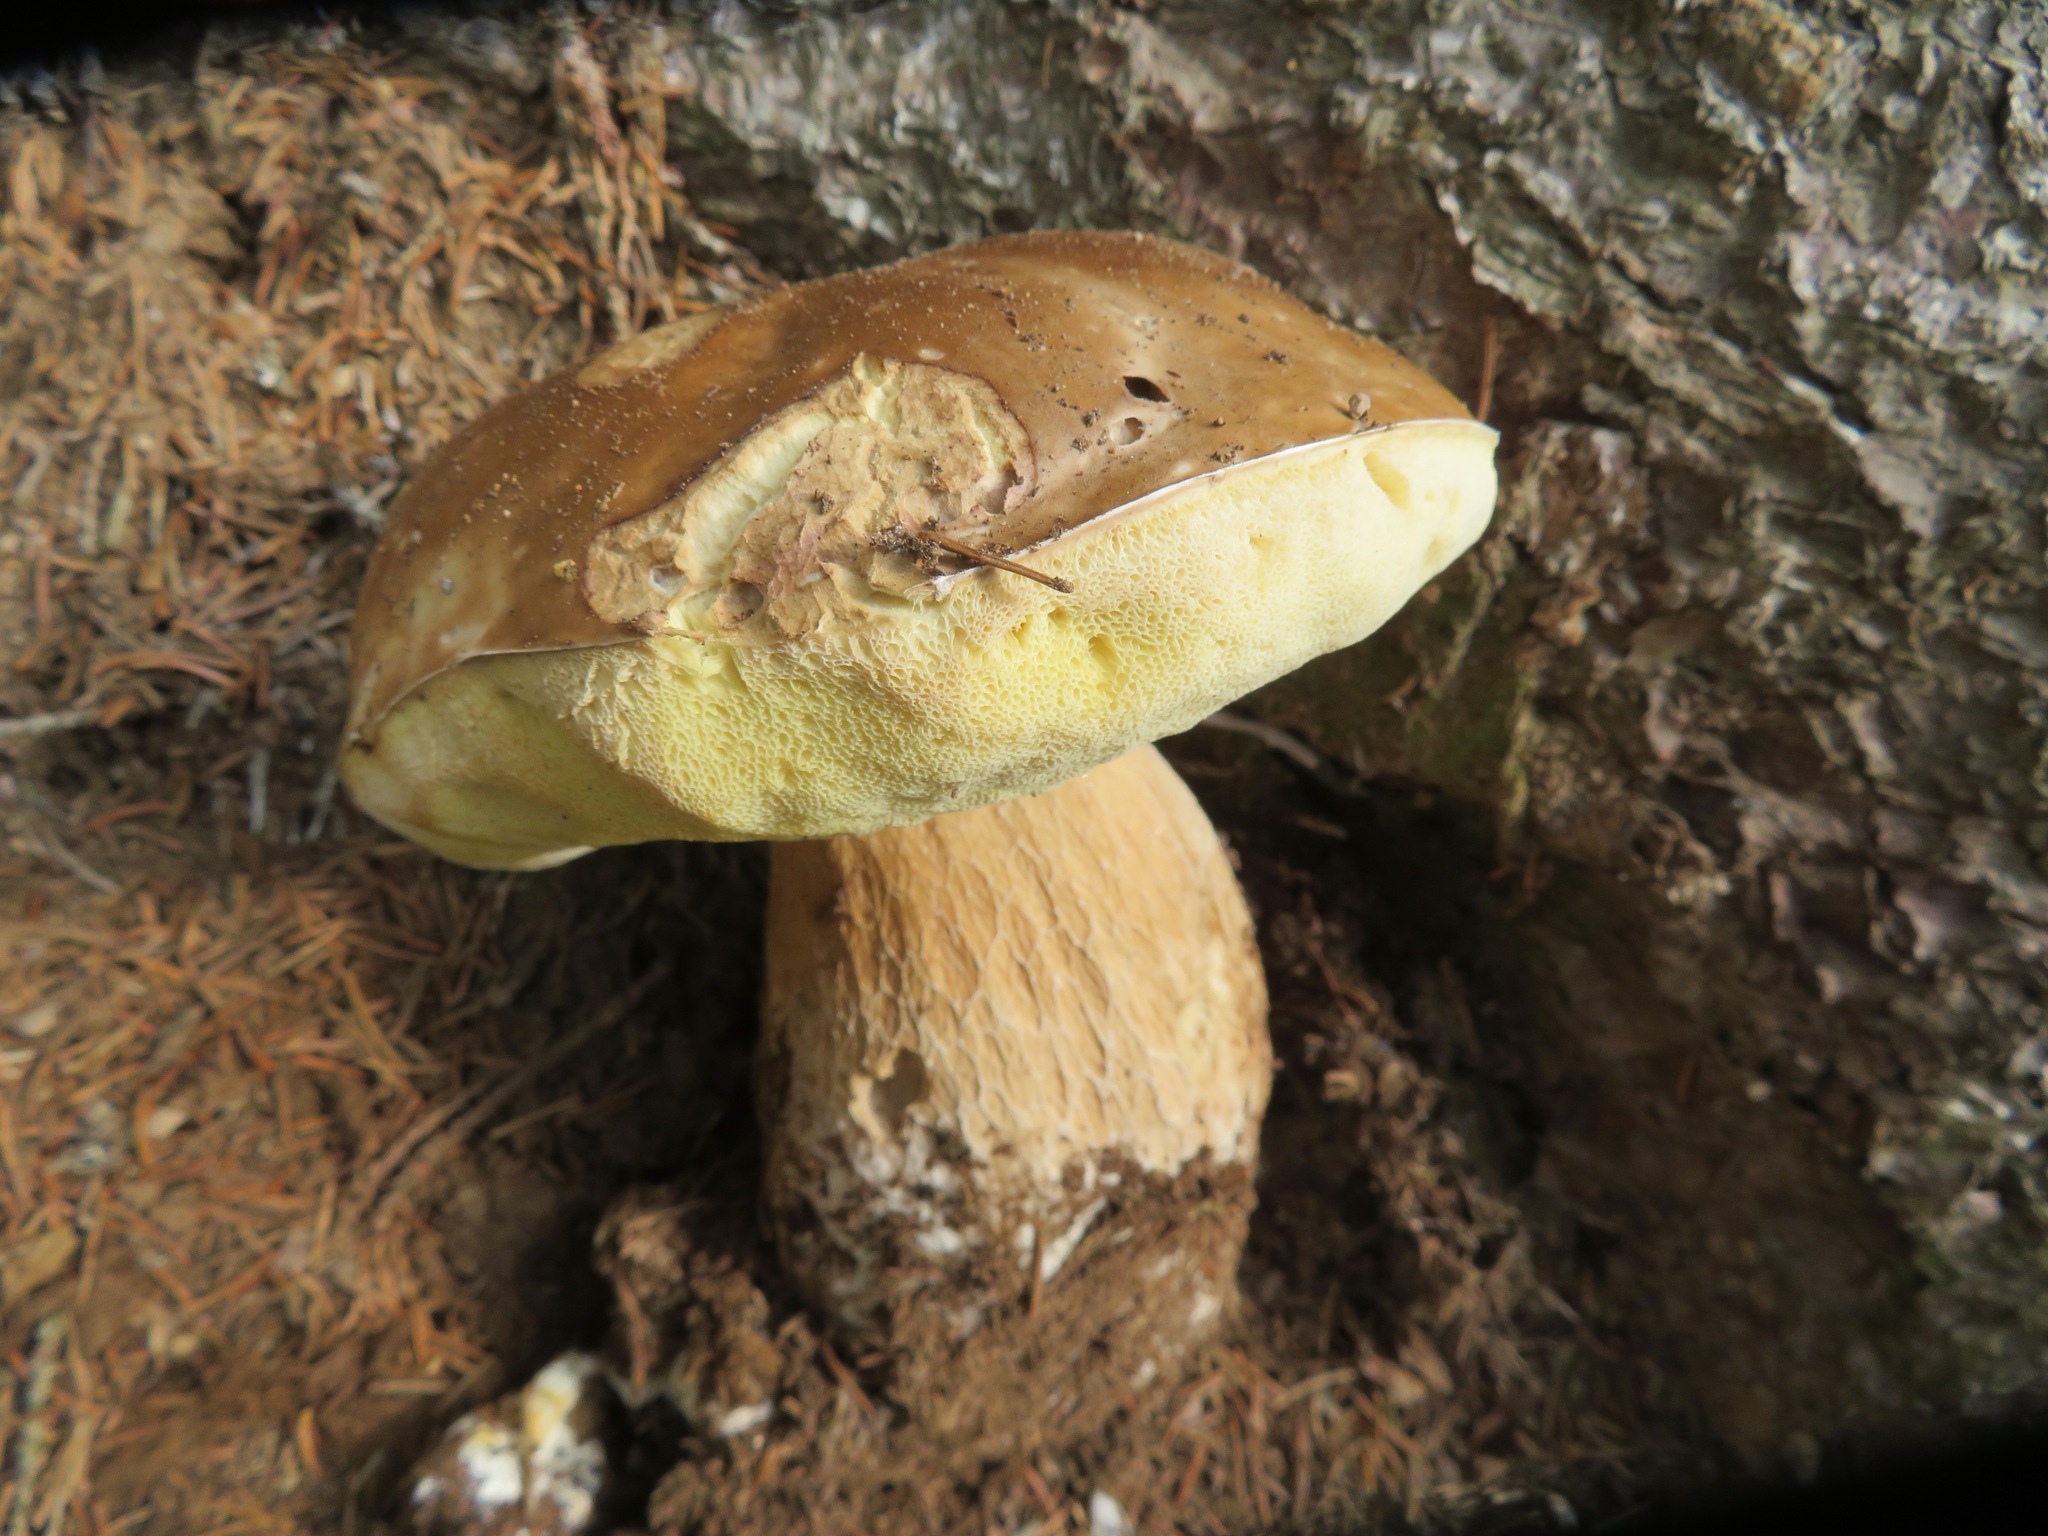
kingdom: Fungi
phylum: Basidiomycota
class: Agaricomycetes
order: Boletales
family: Boletaceae
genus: Boletus
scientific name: Boletus edulis
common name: Cep
